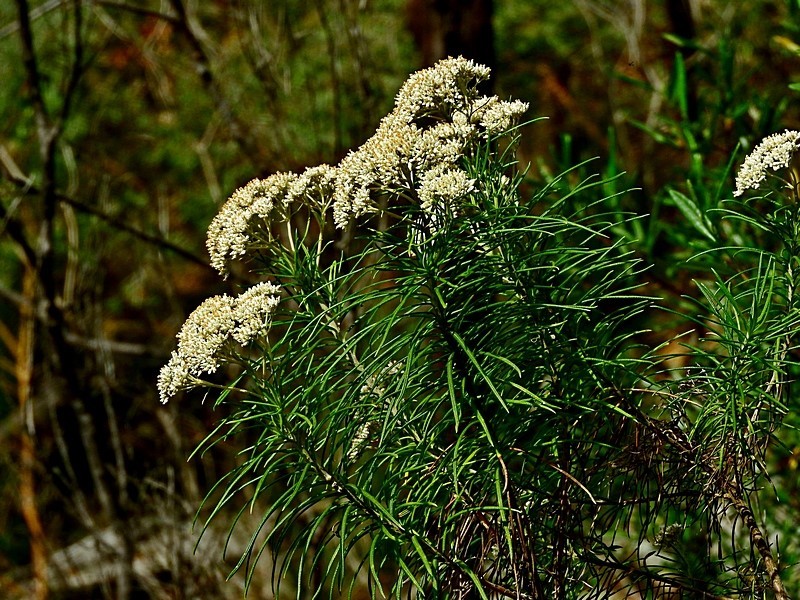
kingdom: Plantae
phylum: Tracheophyta
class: Magnoliopsida
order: Asterales
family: Asteraceae
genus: Cassinia
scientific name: Cassinia longifolia
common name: Longleaf-dogwood
